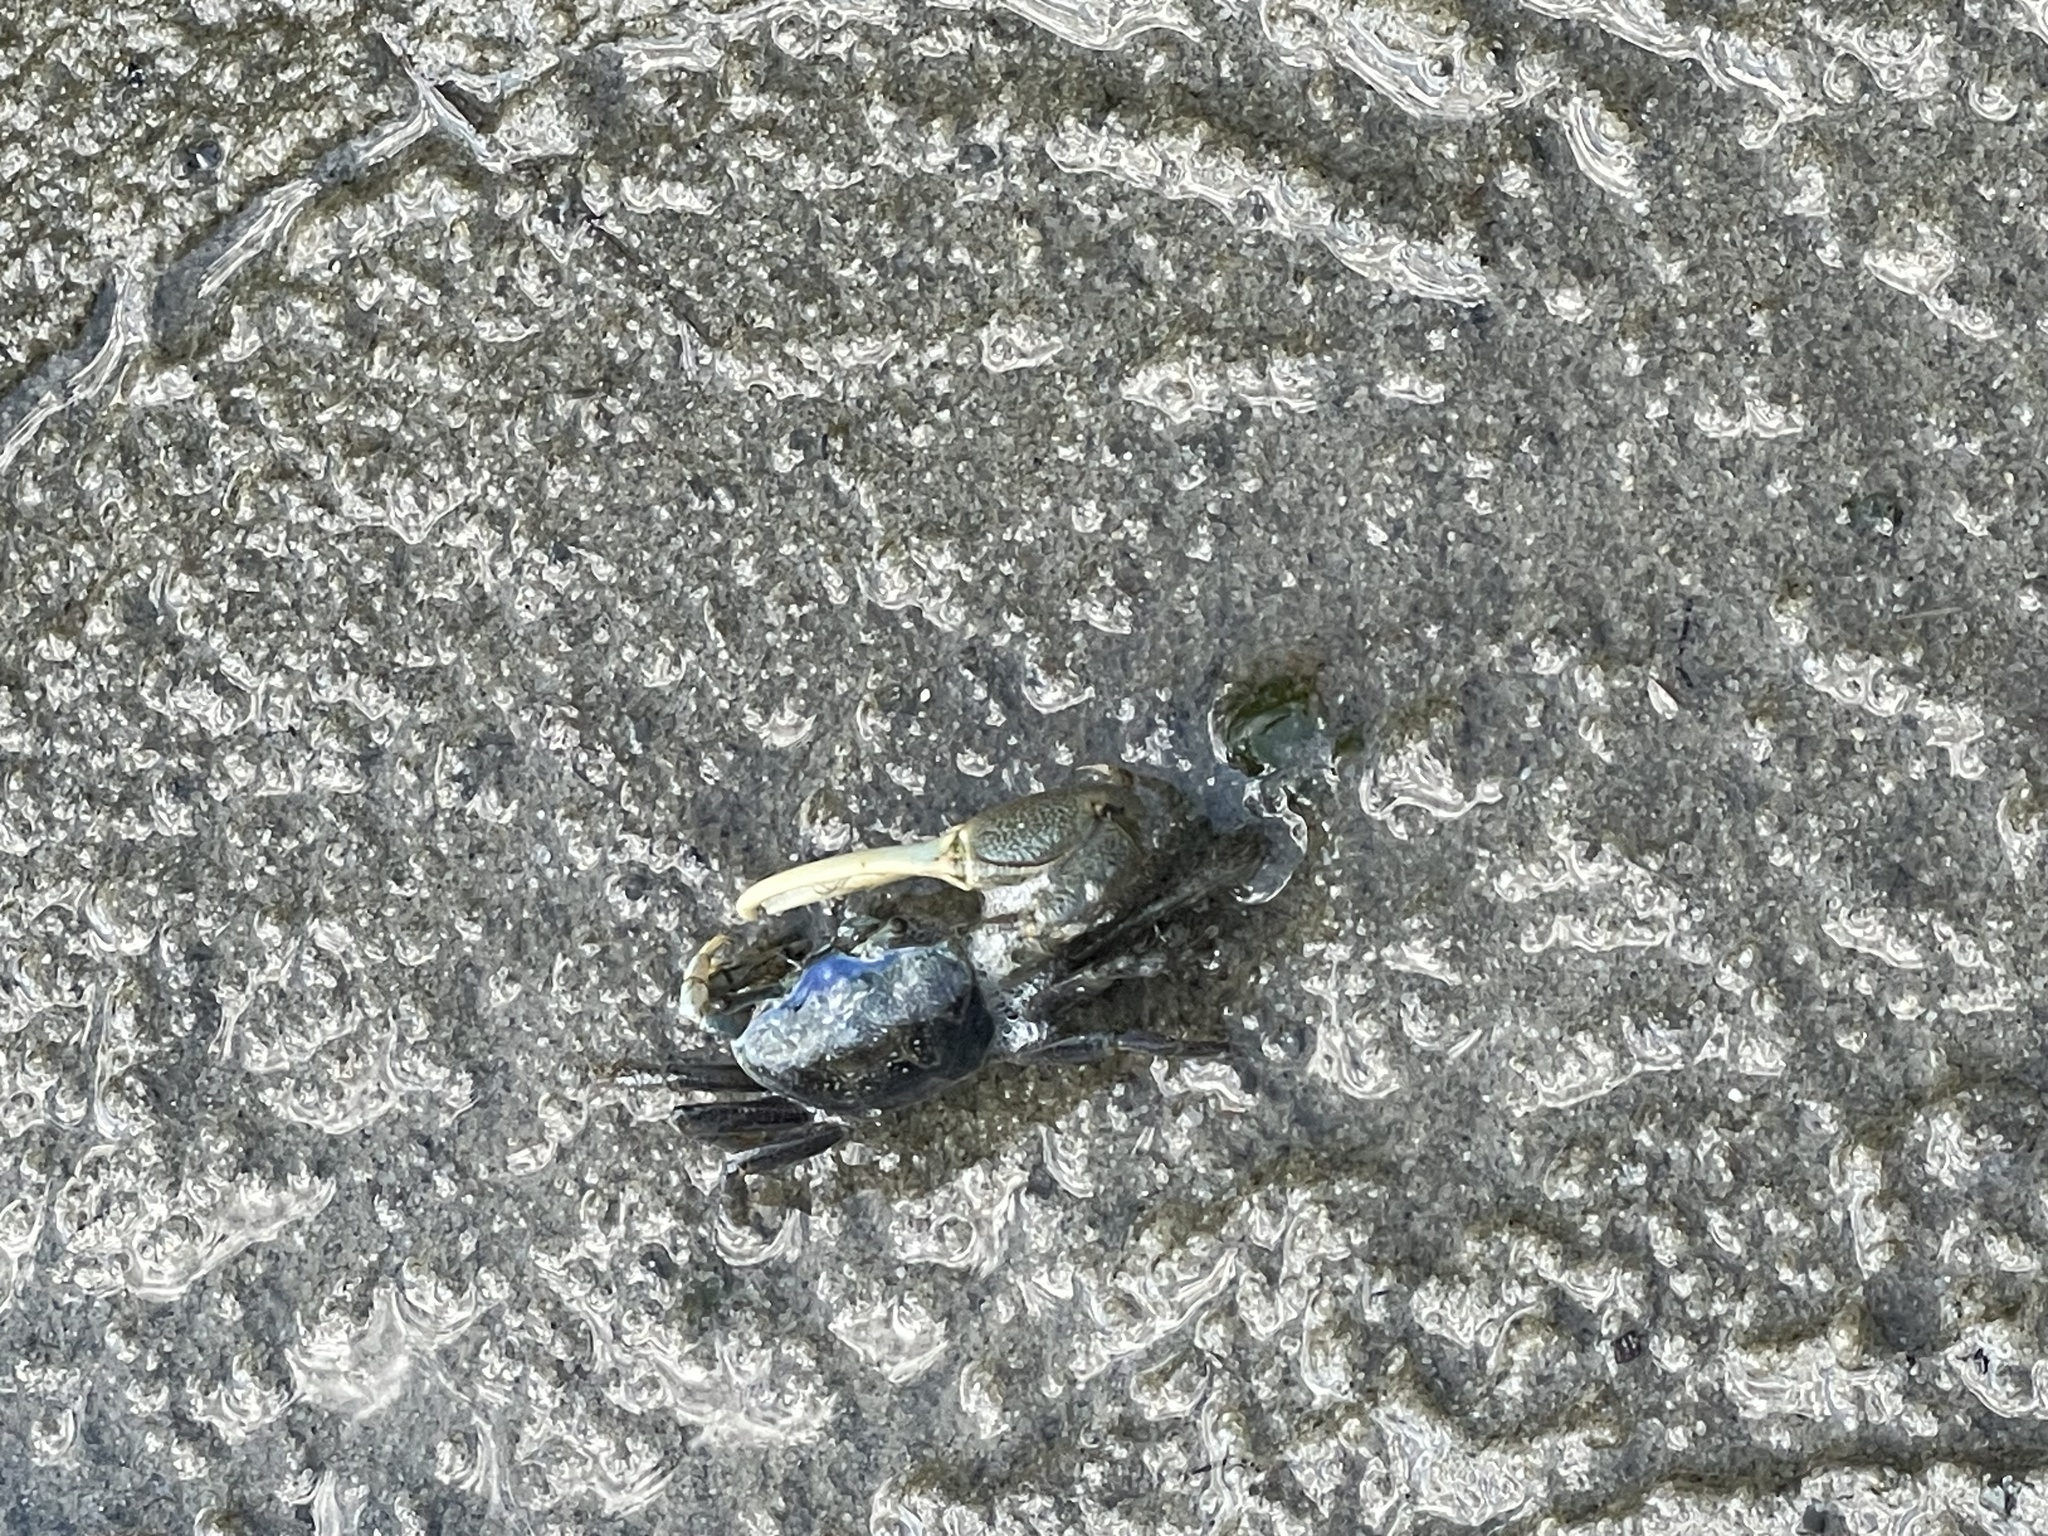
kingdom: Animalia
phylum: Arthropoda
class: Malacostraca
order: Decapoda
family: Ocypodidae
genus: Minuca
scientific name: Minuca pugnax
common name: Mud fiddler crab
